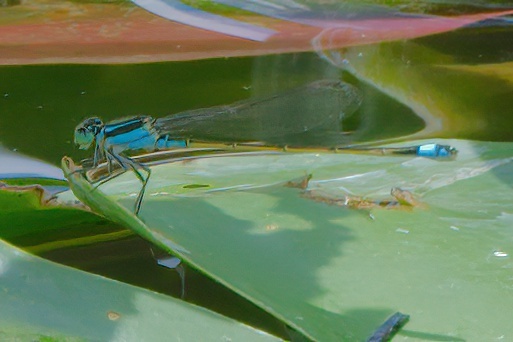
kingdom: Animalia
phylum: Arthropoda
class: Insecta
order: Odonata
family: Coenagrionidae
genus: Ischnura
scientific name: Ischnura ramburii
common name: Rambur's forktail
